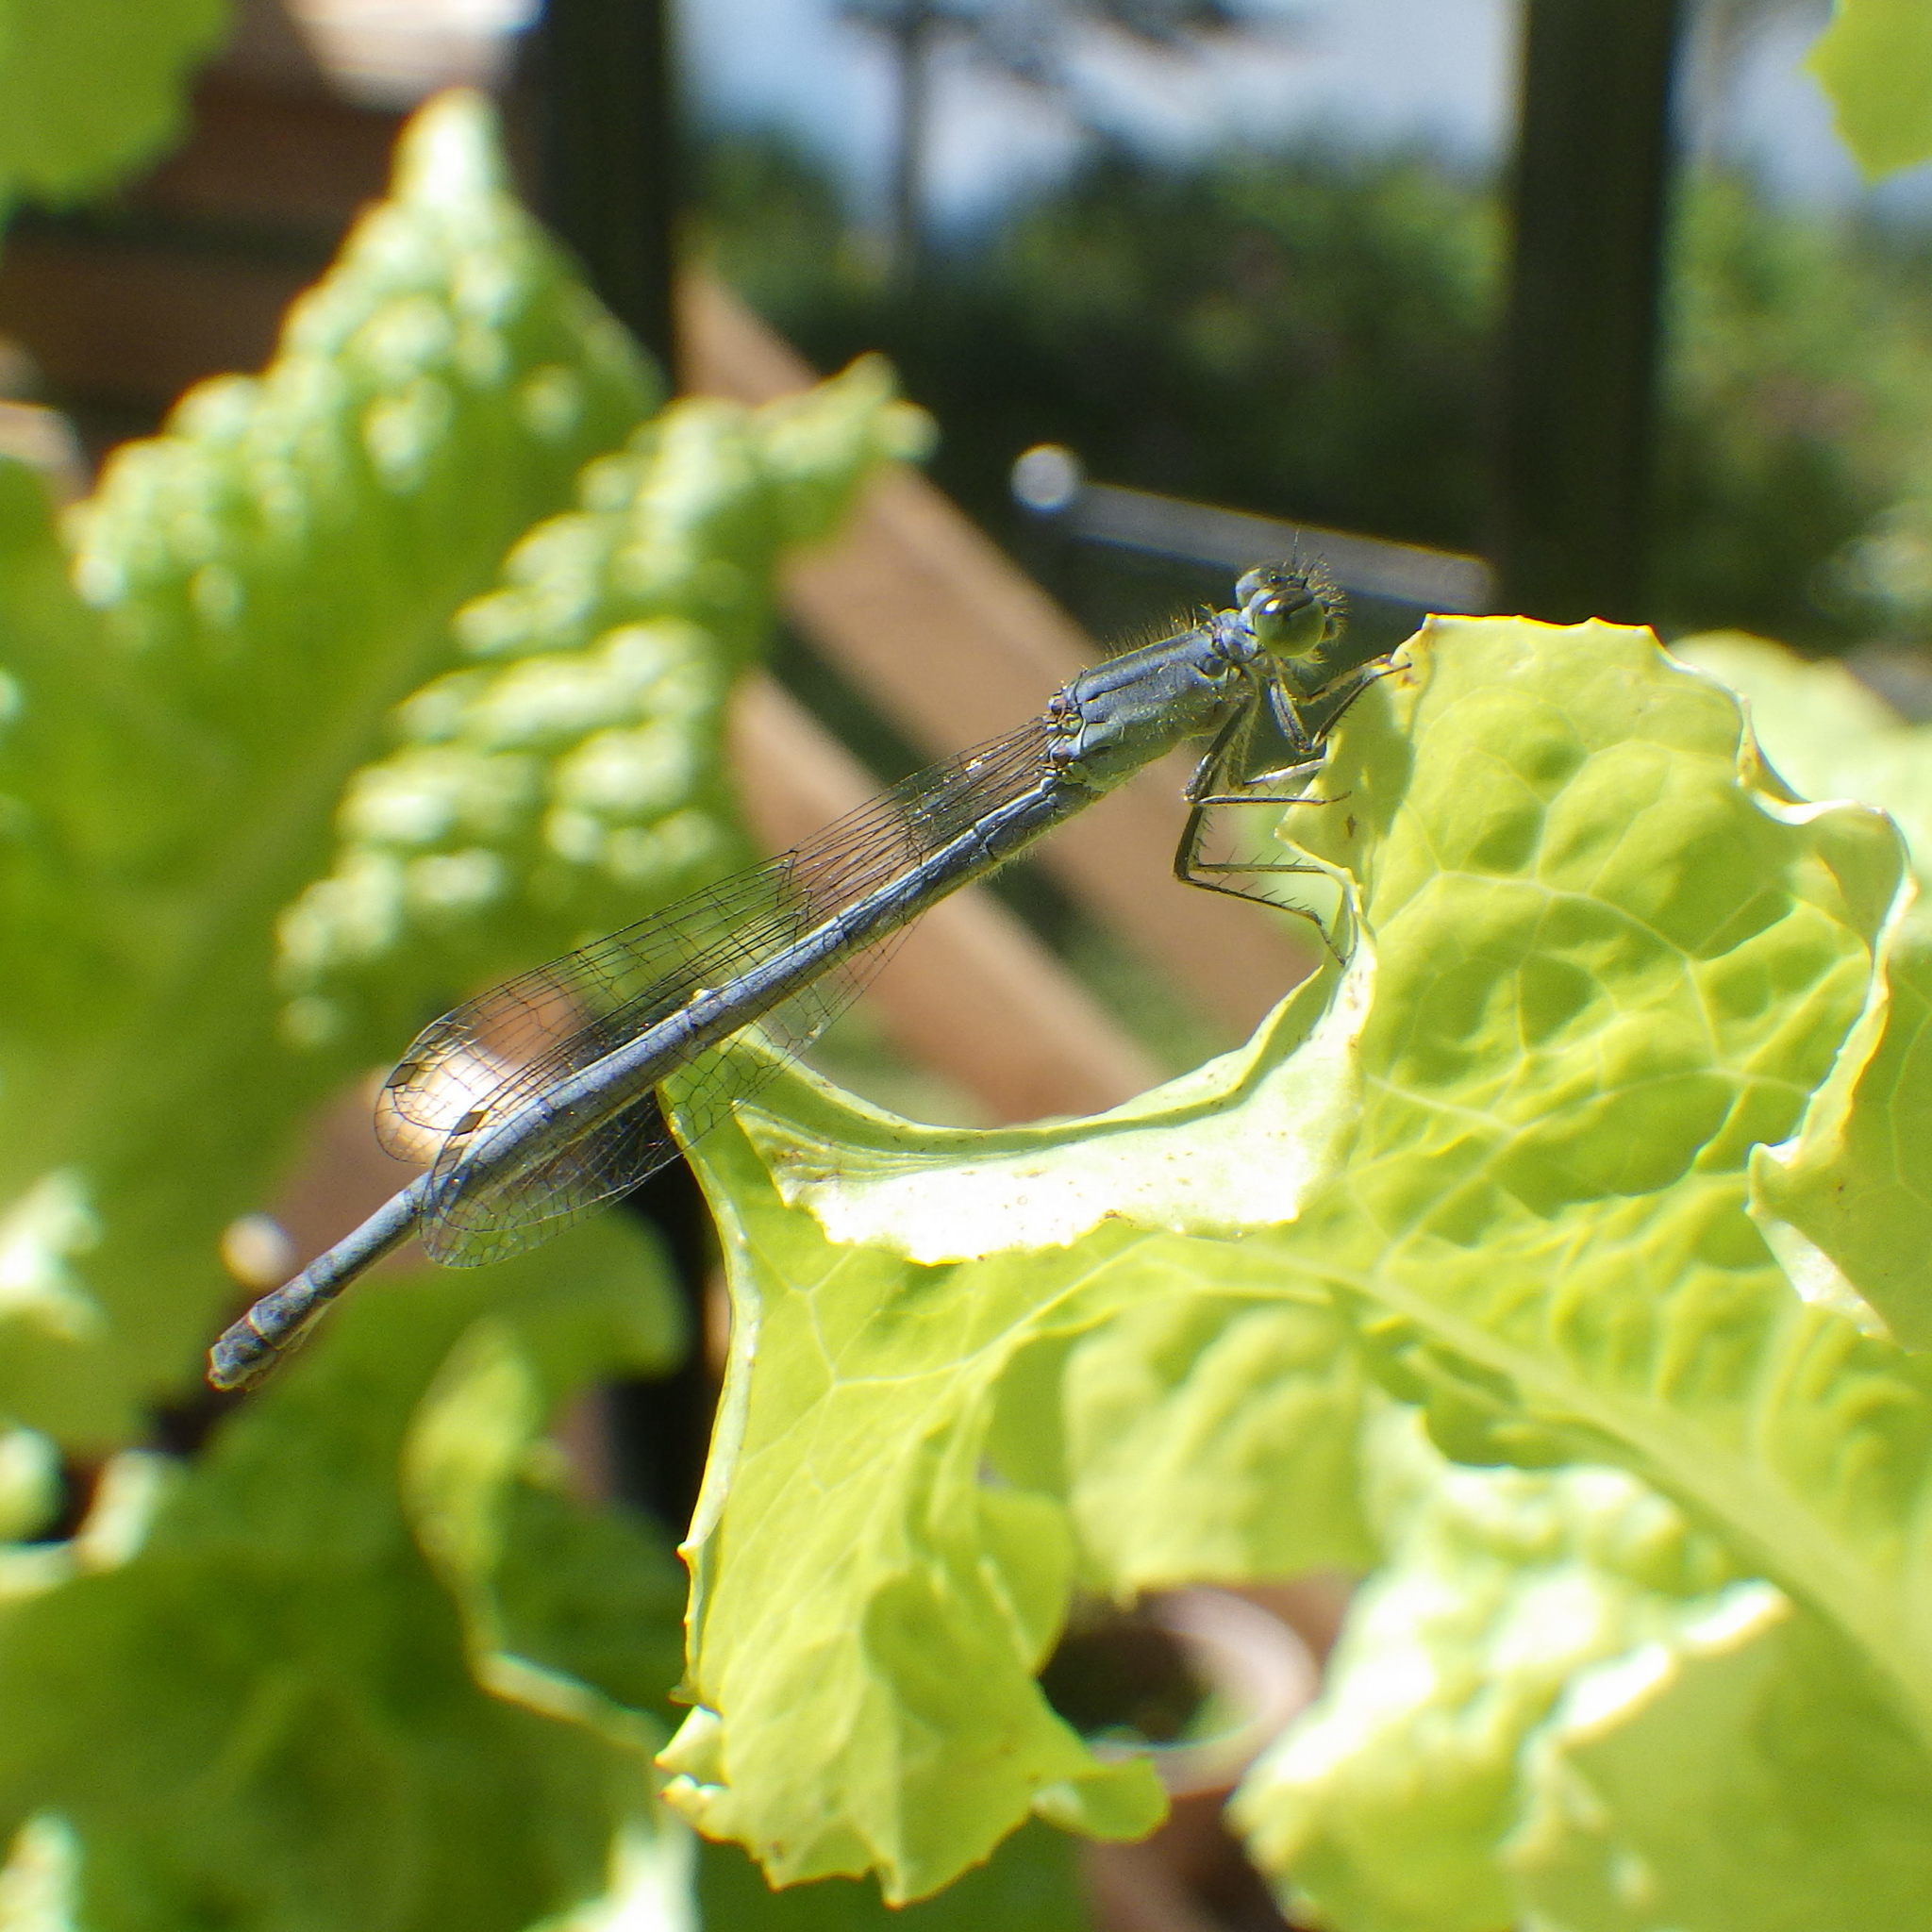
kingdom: Animalia
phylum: Arthropoda
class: Insecta
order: Odonata
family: Coenagrionidae
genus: Ischnura
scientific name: Ischnura verticalis
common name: Eastern forktail
